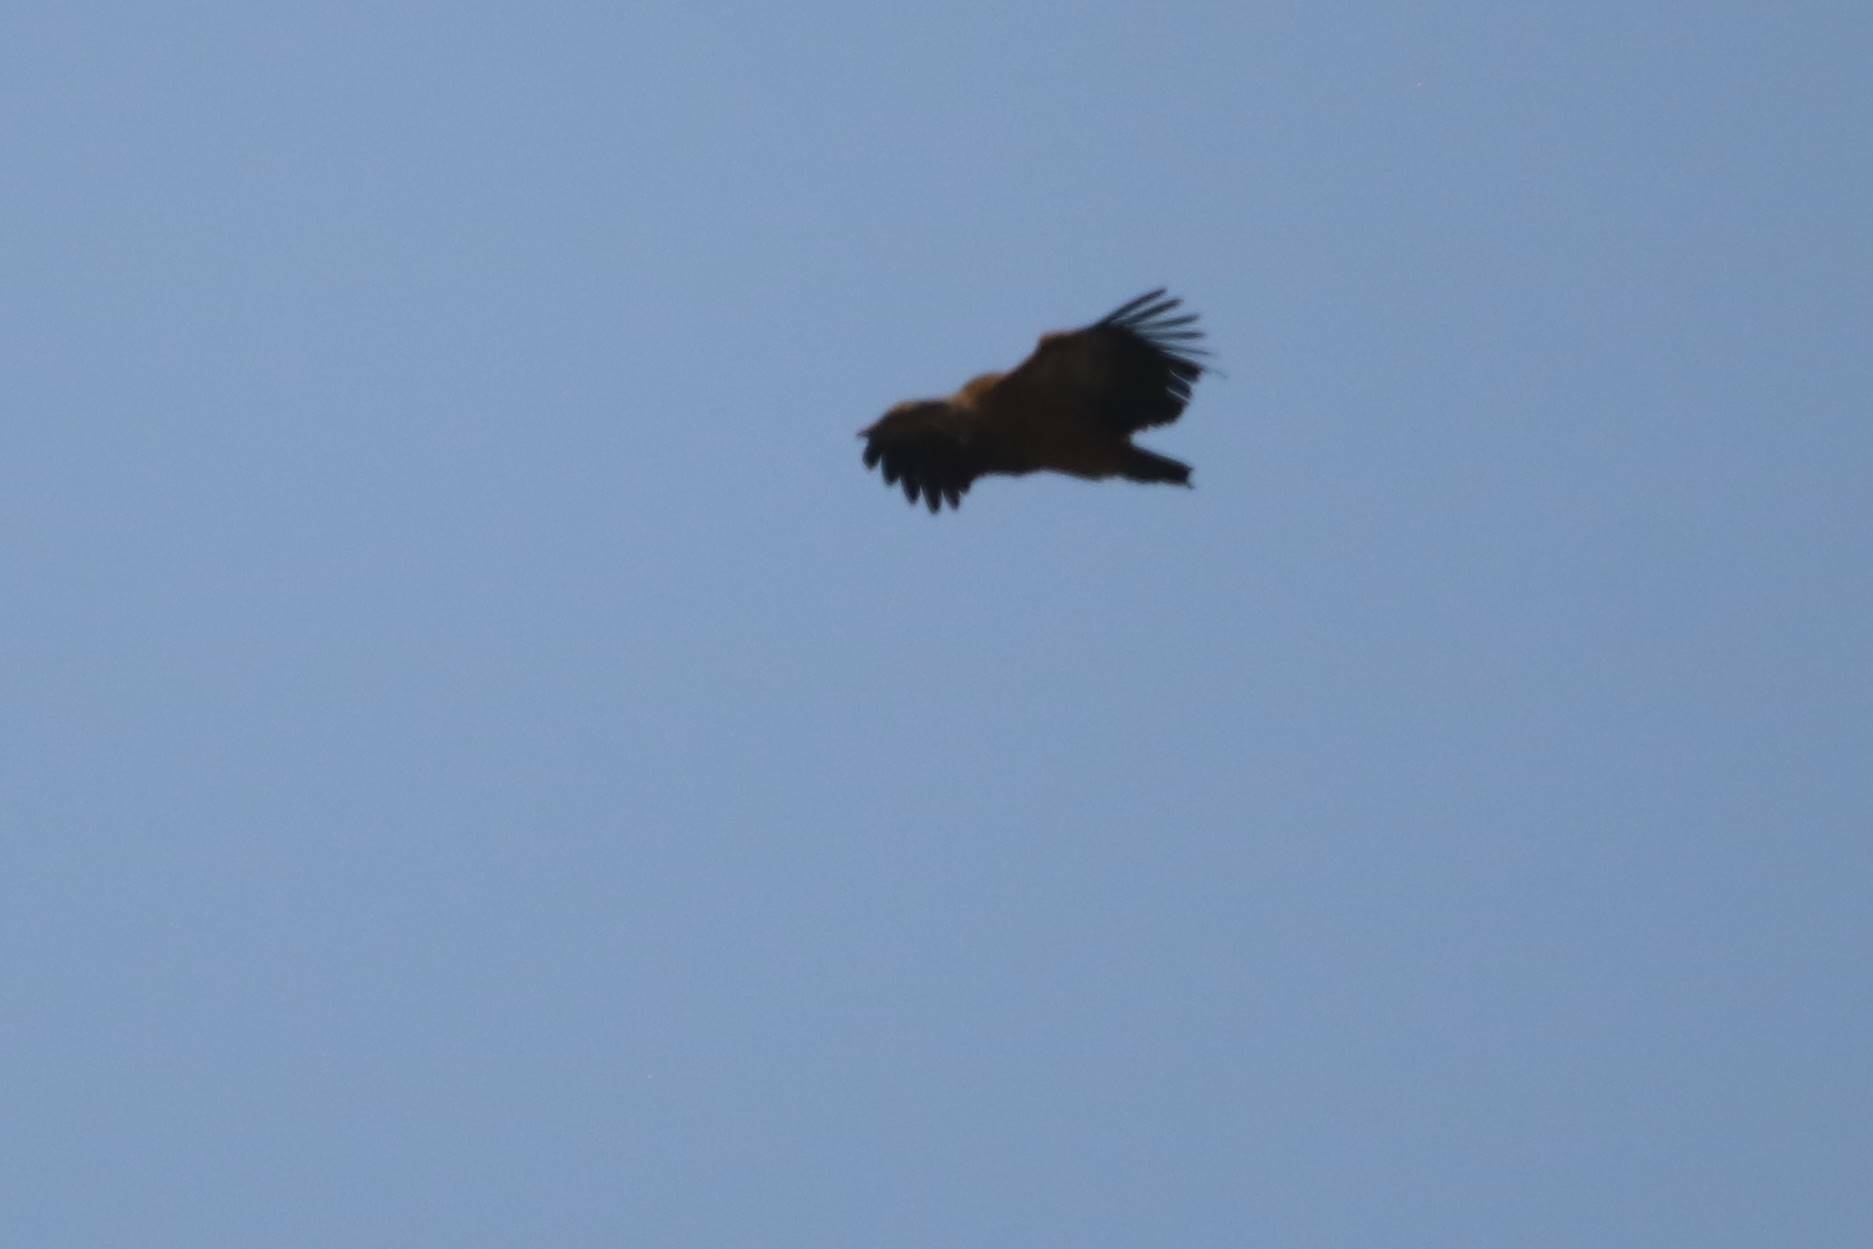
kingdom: Animalia
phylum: Chordata
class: Aves
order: Accipitriformes
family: Accipitridae
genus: Gyps
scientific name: Gyps fulvus
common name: Griffon vulture
